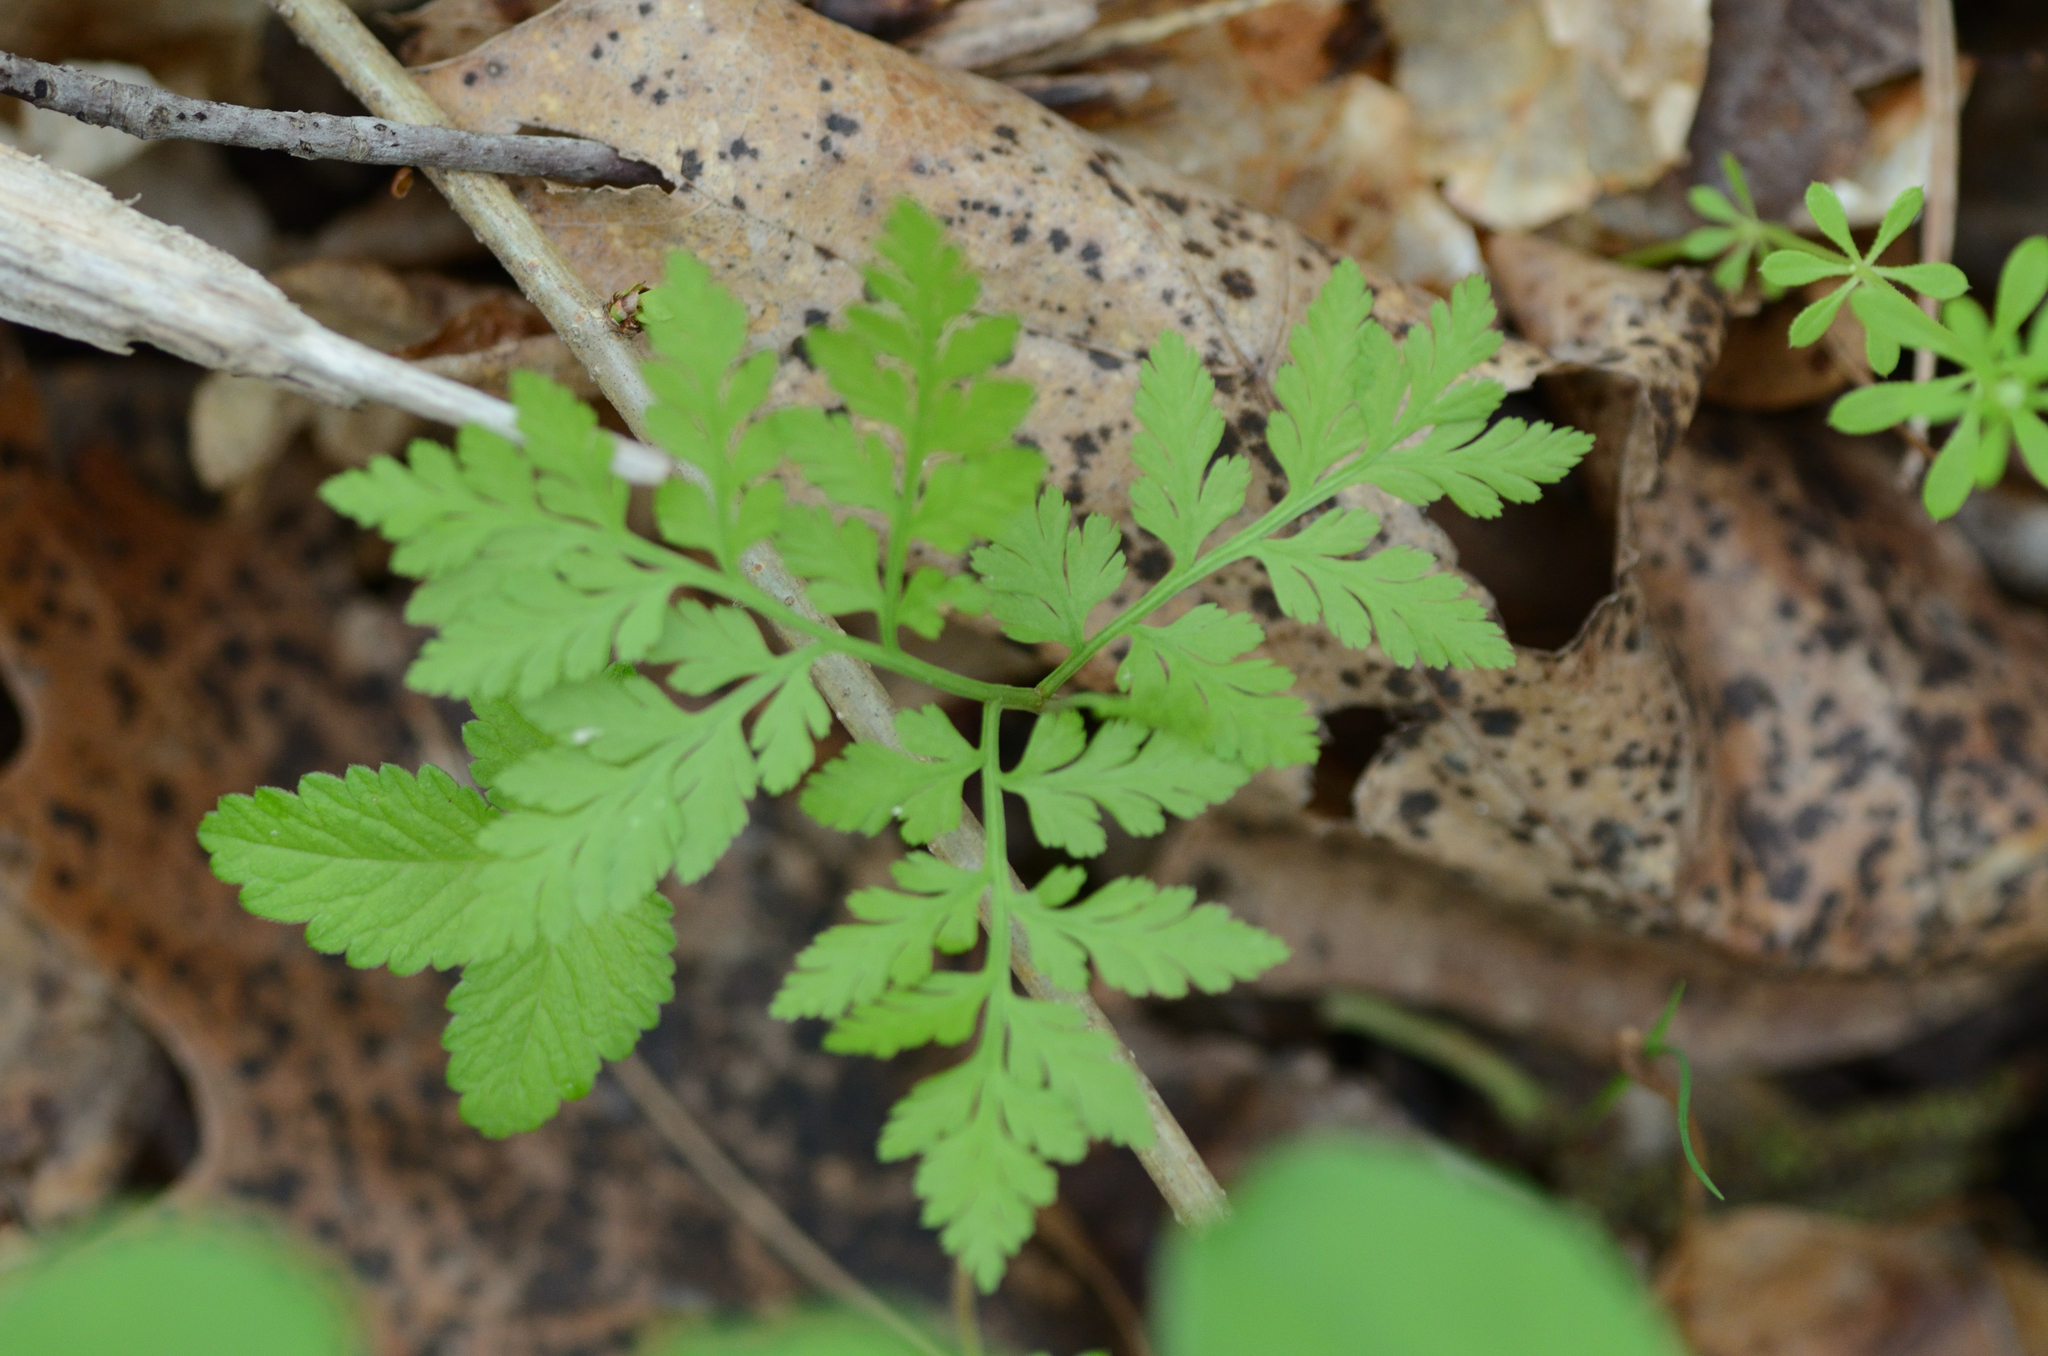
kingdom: Plantae
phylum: Tracheophyta
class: Polypodiopsida
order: Ophioglossales
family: Ophioglossaceae
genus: Botrypus
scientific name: Botrypus virginianus
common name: Common grapefern
